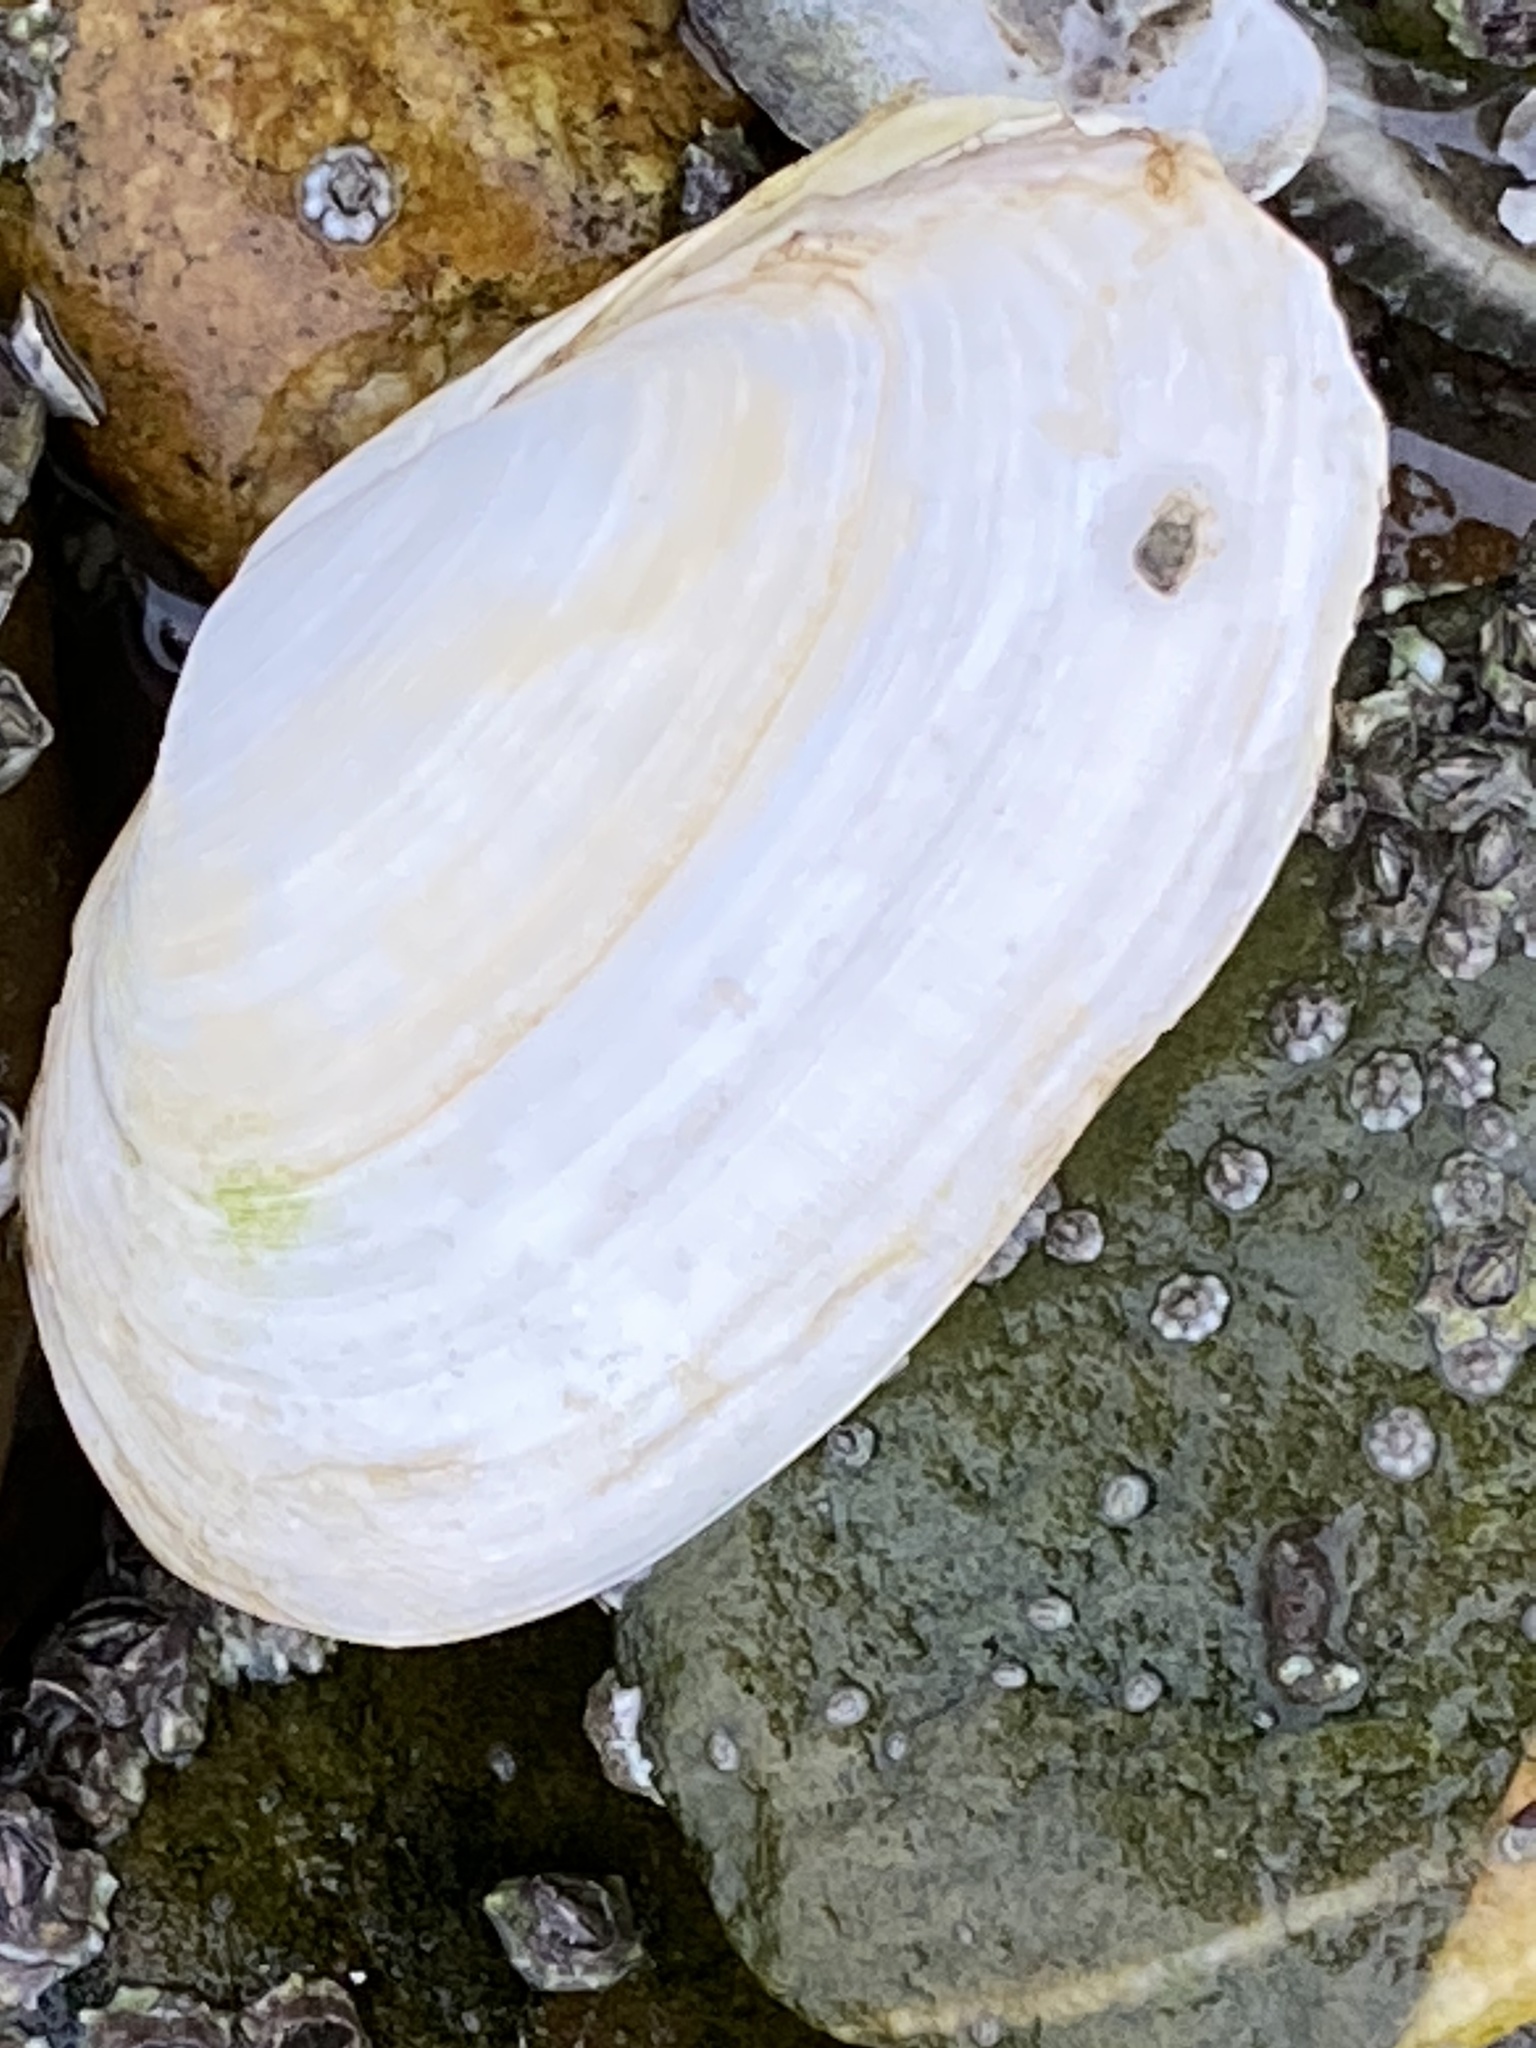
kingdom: Animalia
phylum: Mollusca
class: Bivalvia
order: Myida
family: Myidae
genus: Mya
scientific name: Mya arenaria
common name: Soft-shelled clam
